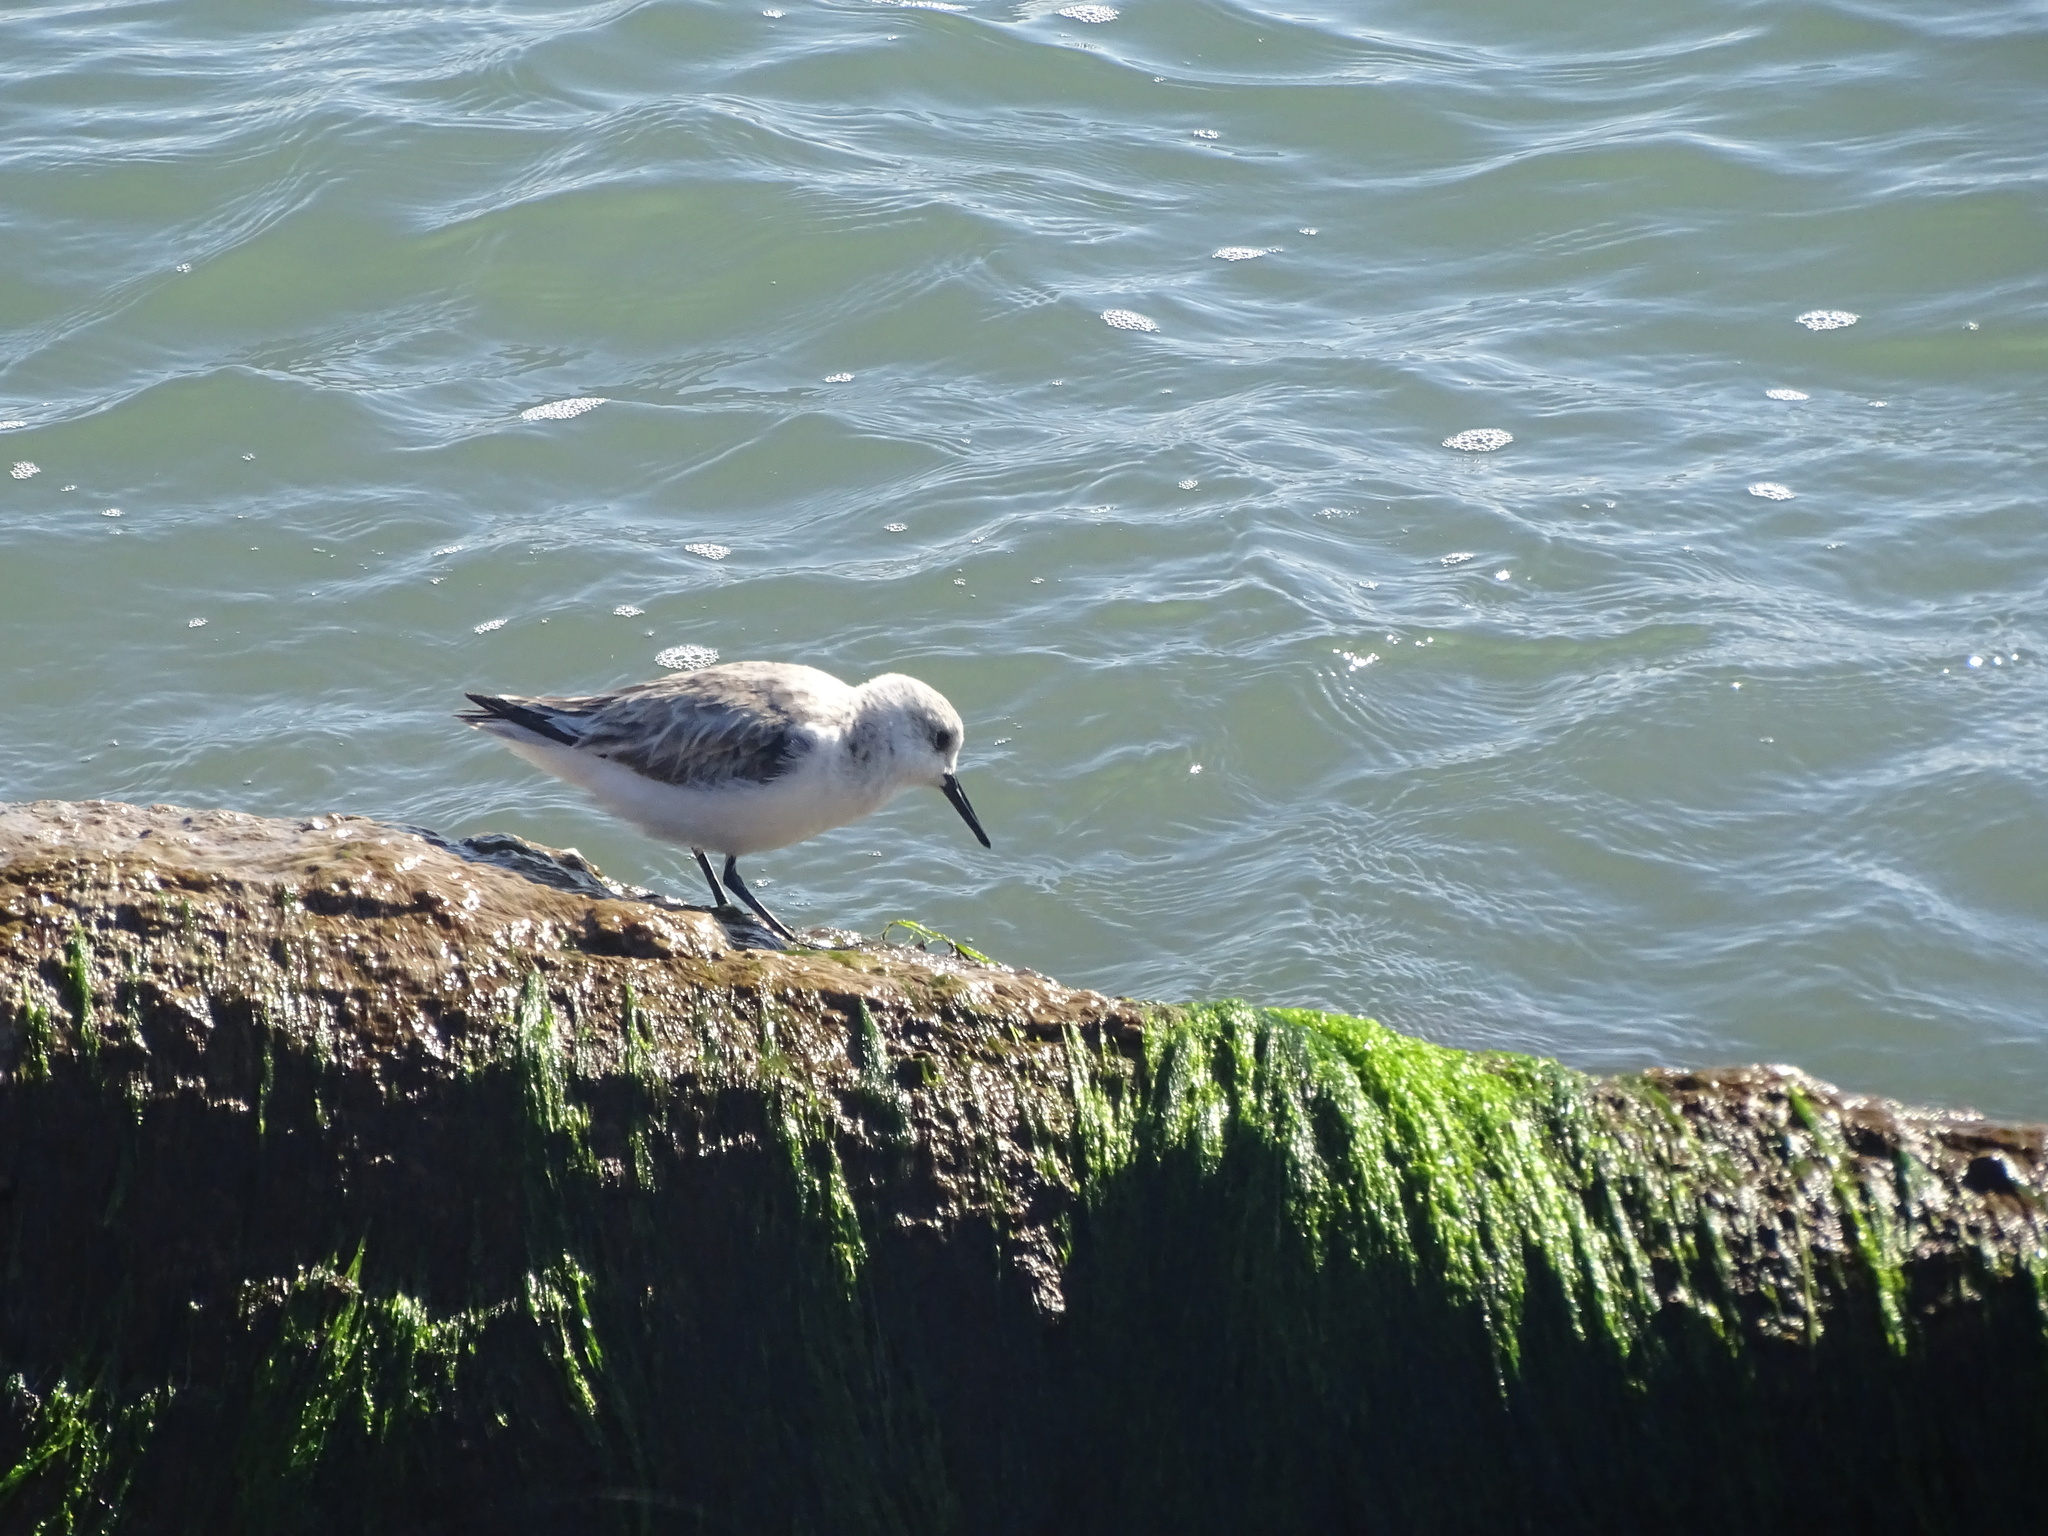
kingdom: Animalia
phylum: Chordata
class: Aves
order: Charadriiformes
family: Scolopacidae
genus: Calidris
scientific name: Calidris alba
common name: Sanderling
